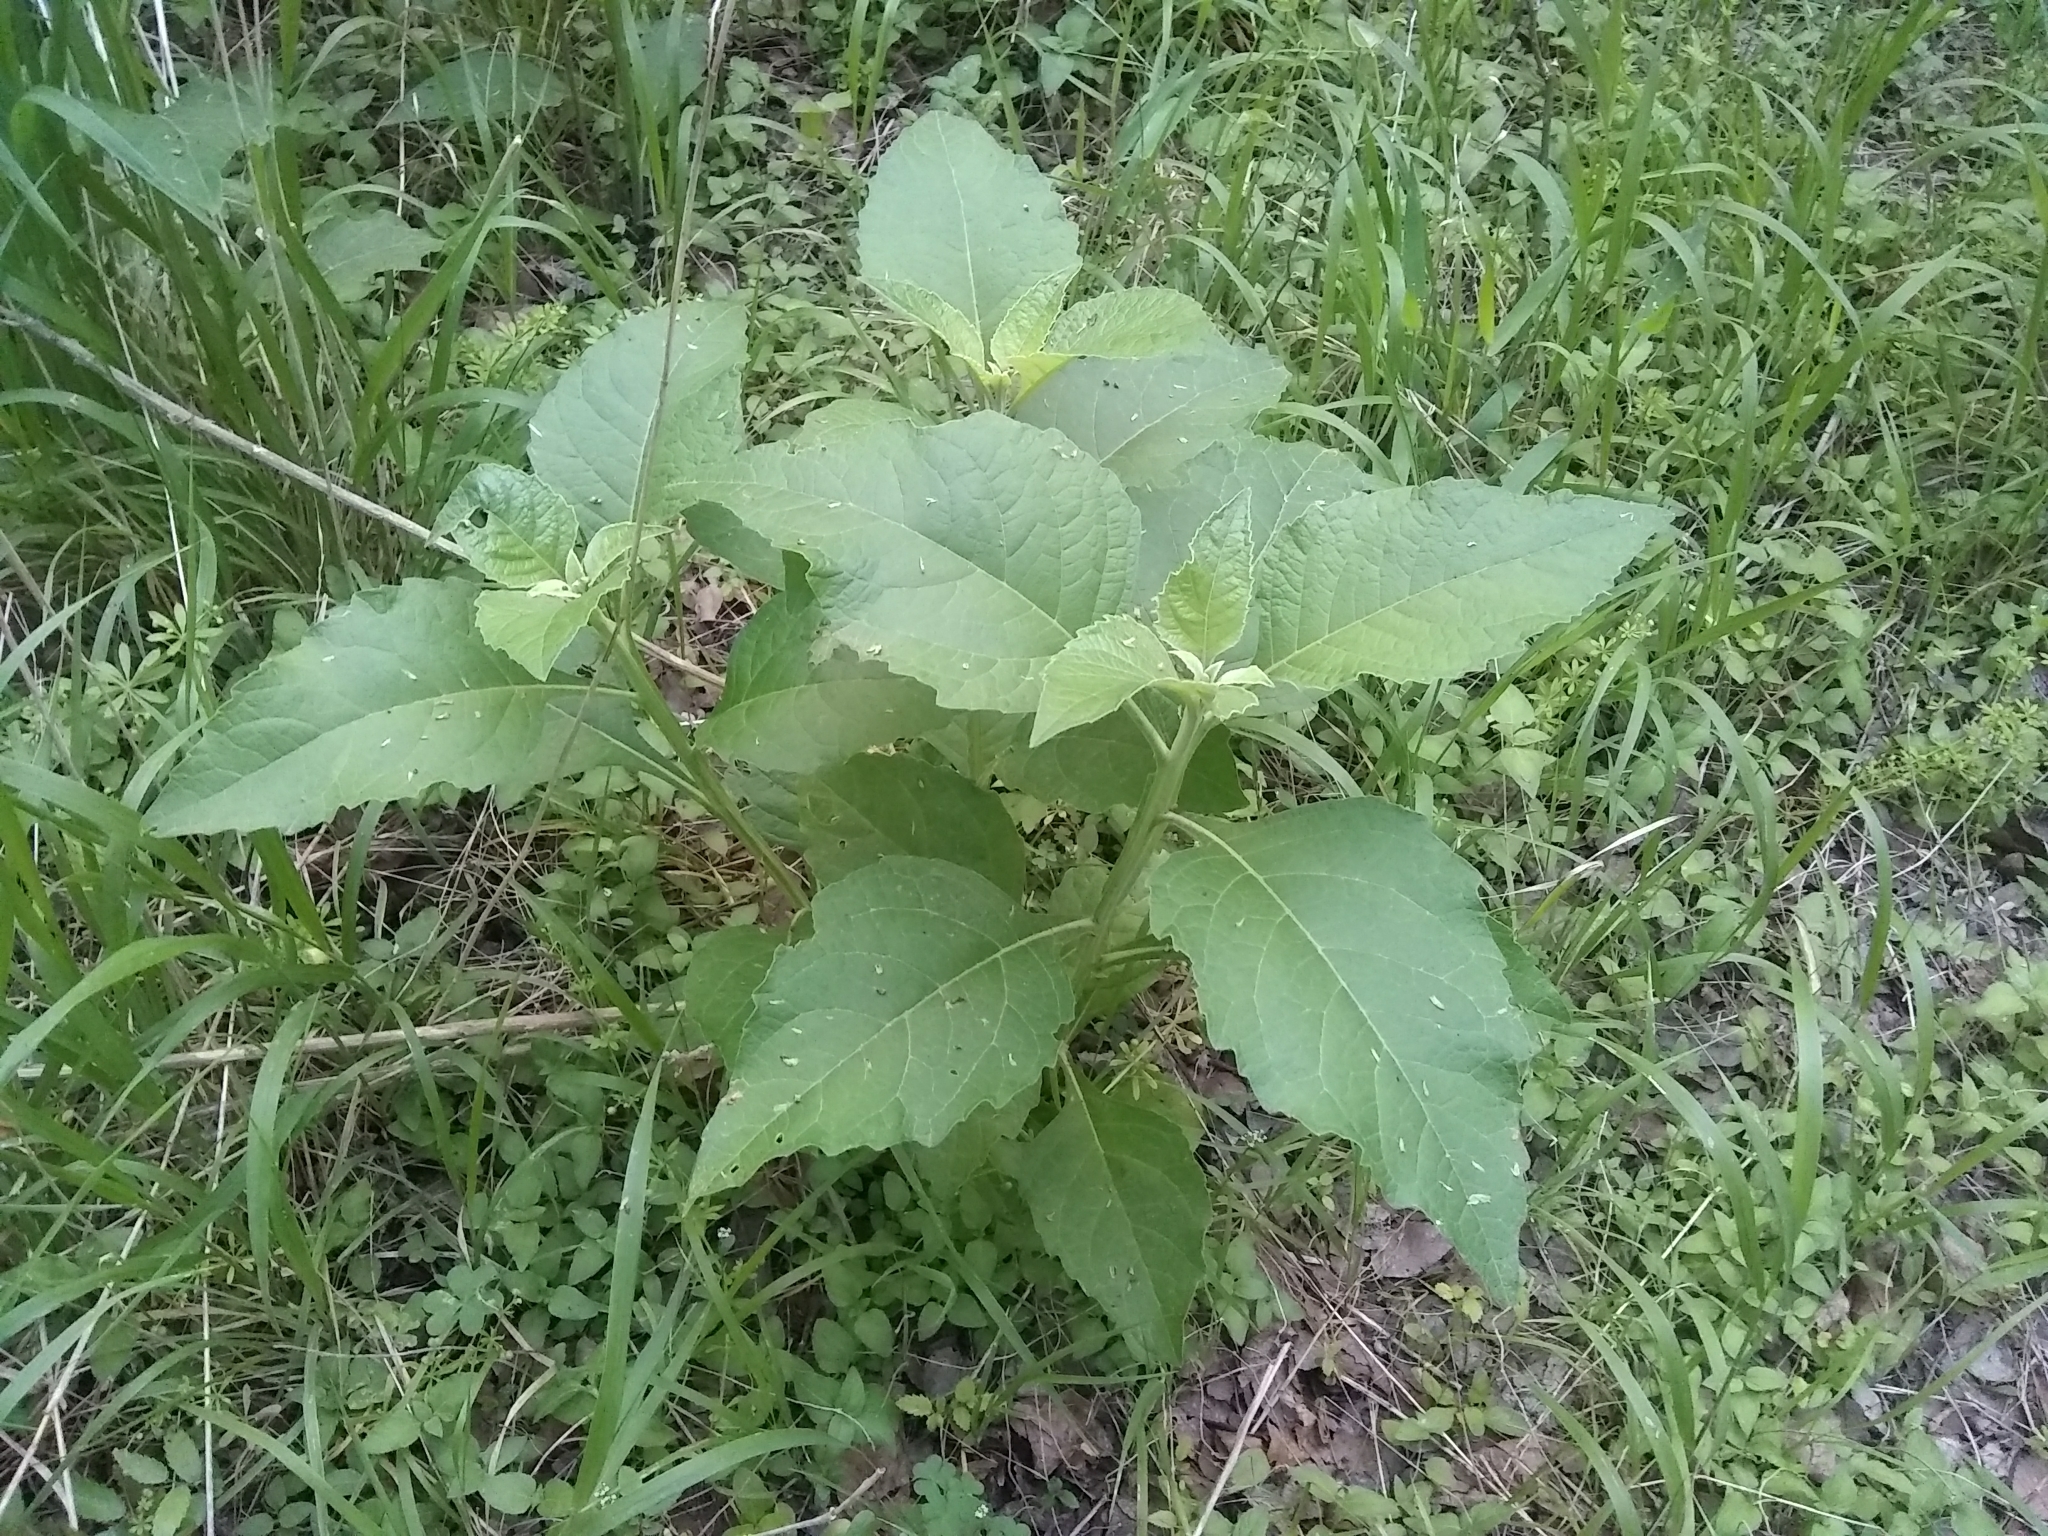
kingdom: Plantae
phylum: Tracheophyta
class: Magnoliopsida
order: Asterales
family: Asteraceae
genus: Verbesina
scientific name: Verbesina virginica
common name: Frostweed
